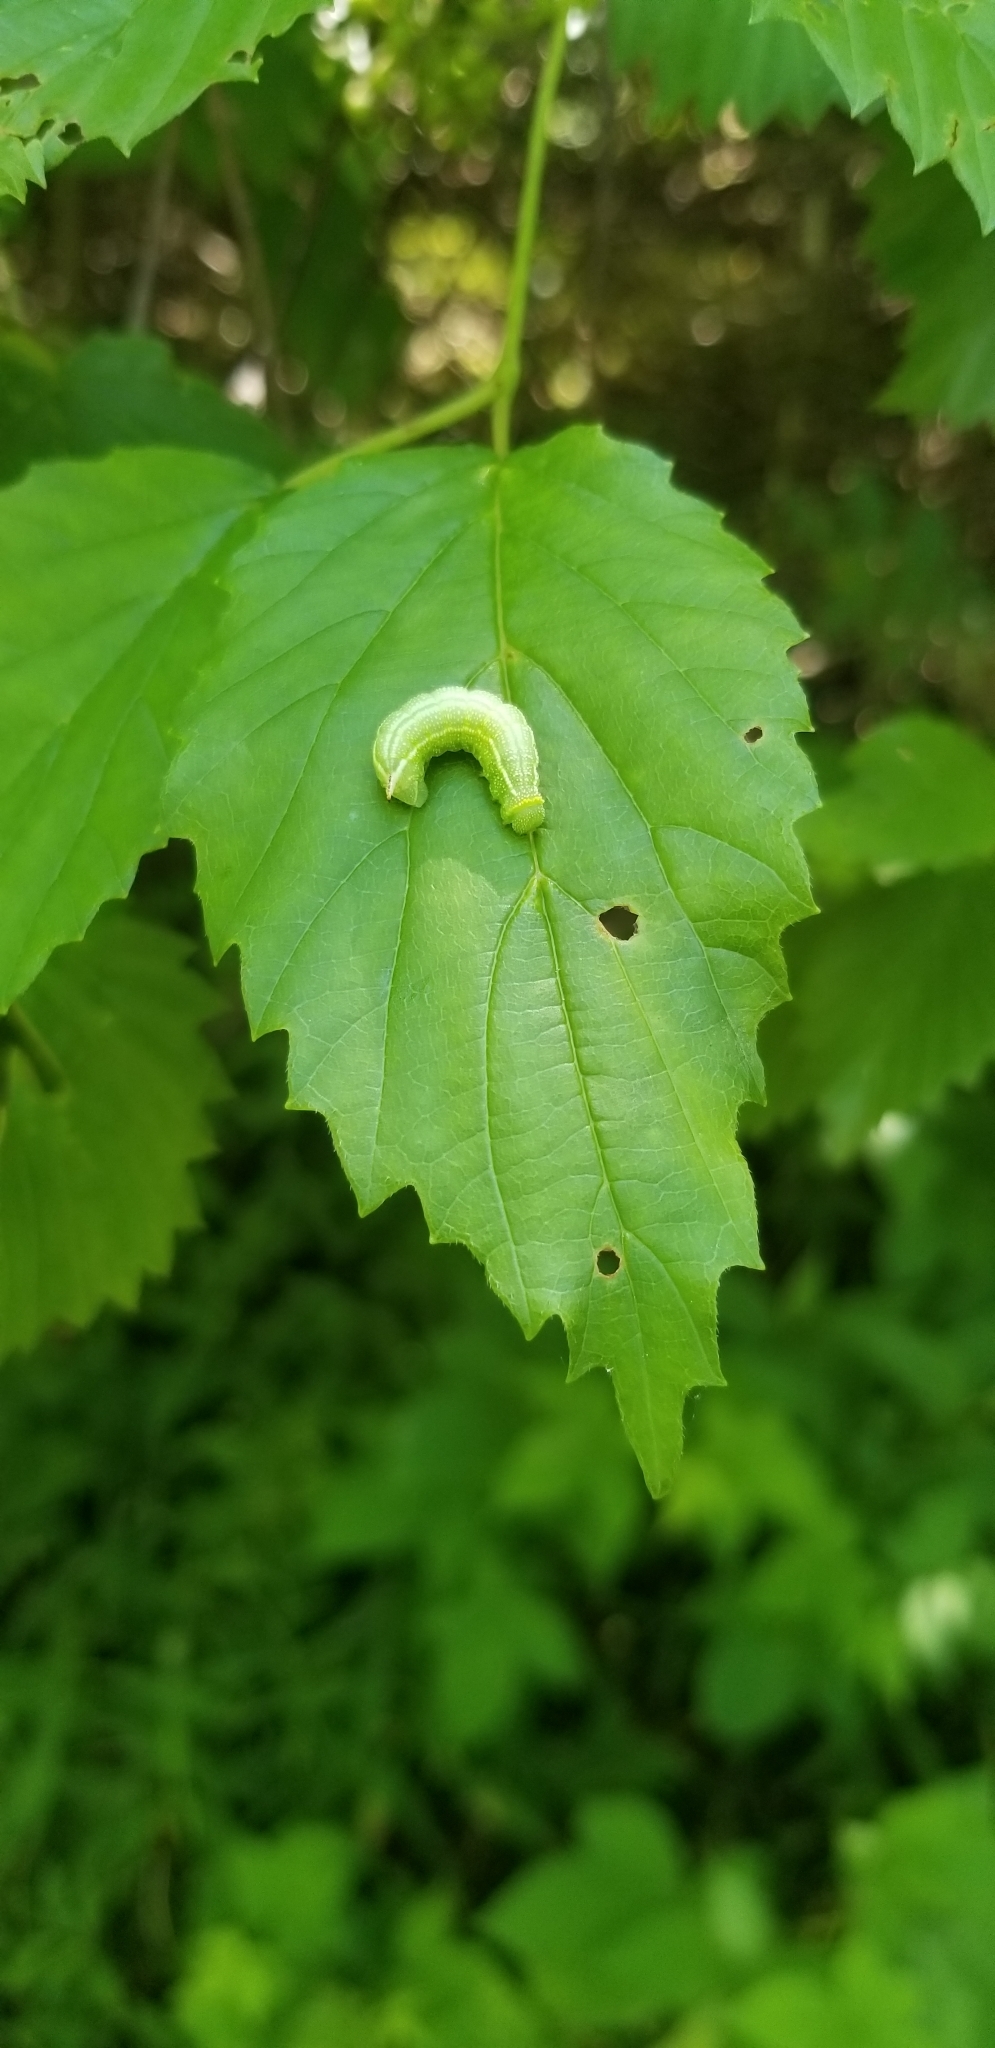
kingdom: Animalia
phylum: Arthropoda
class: Insecta
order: Lepidoptera
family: Sphingidae
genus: Hemaris
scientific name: Hemaris thysbe
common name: Common clear-wing
